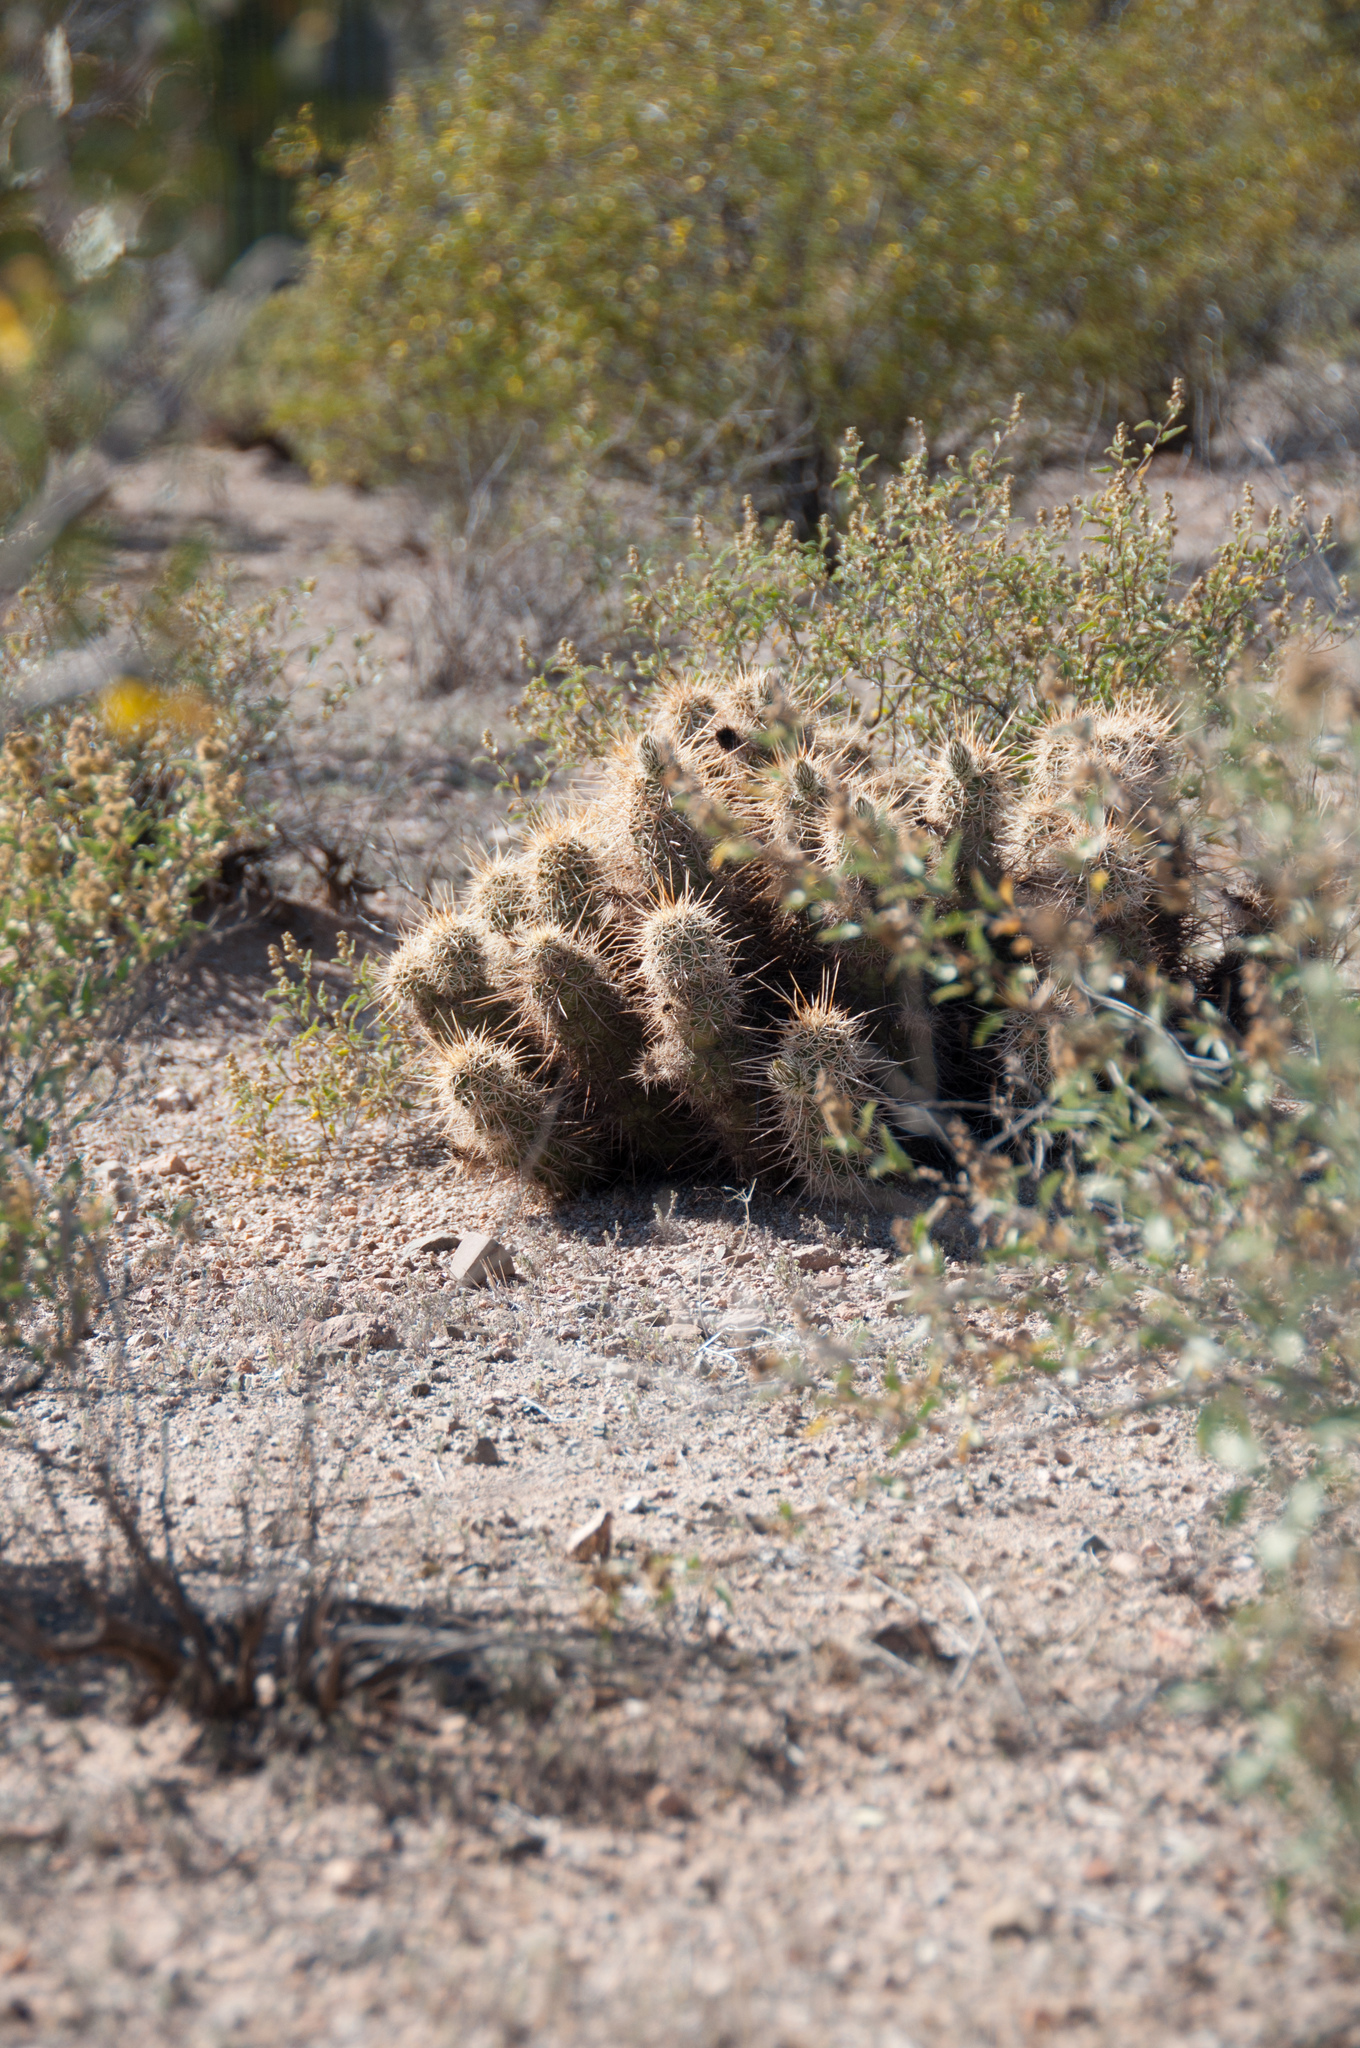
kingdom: Plantae
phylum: Tracheophyta
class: Magnoliopsida
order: Caryophyllales
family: Cactaceae
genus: Echinocereus
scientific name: Echinocereus fasciculatus
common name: Bundle hedgehog
